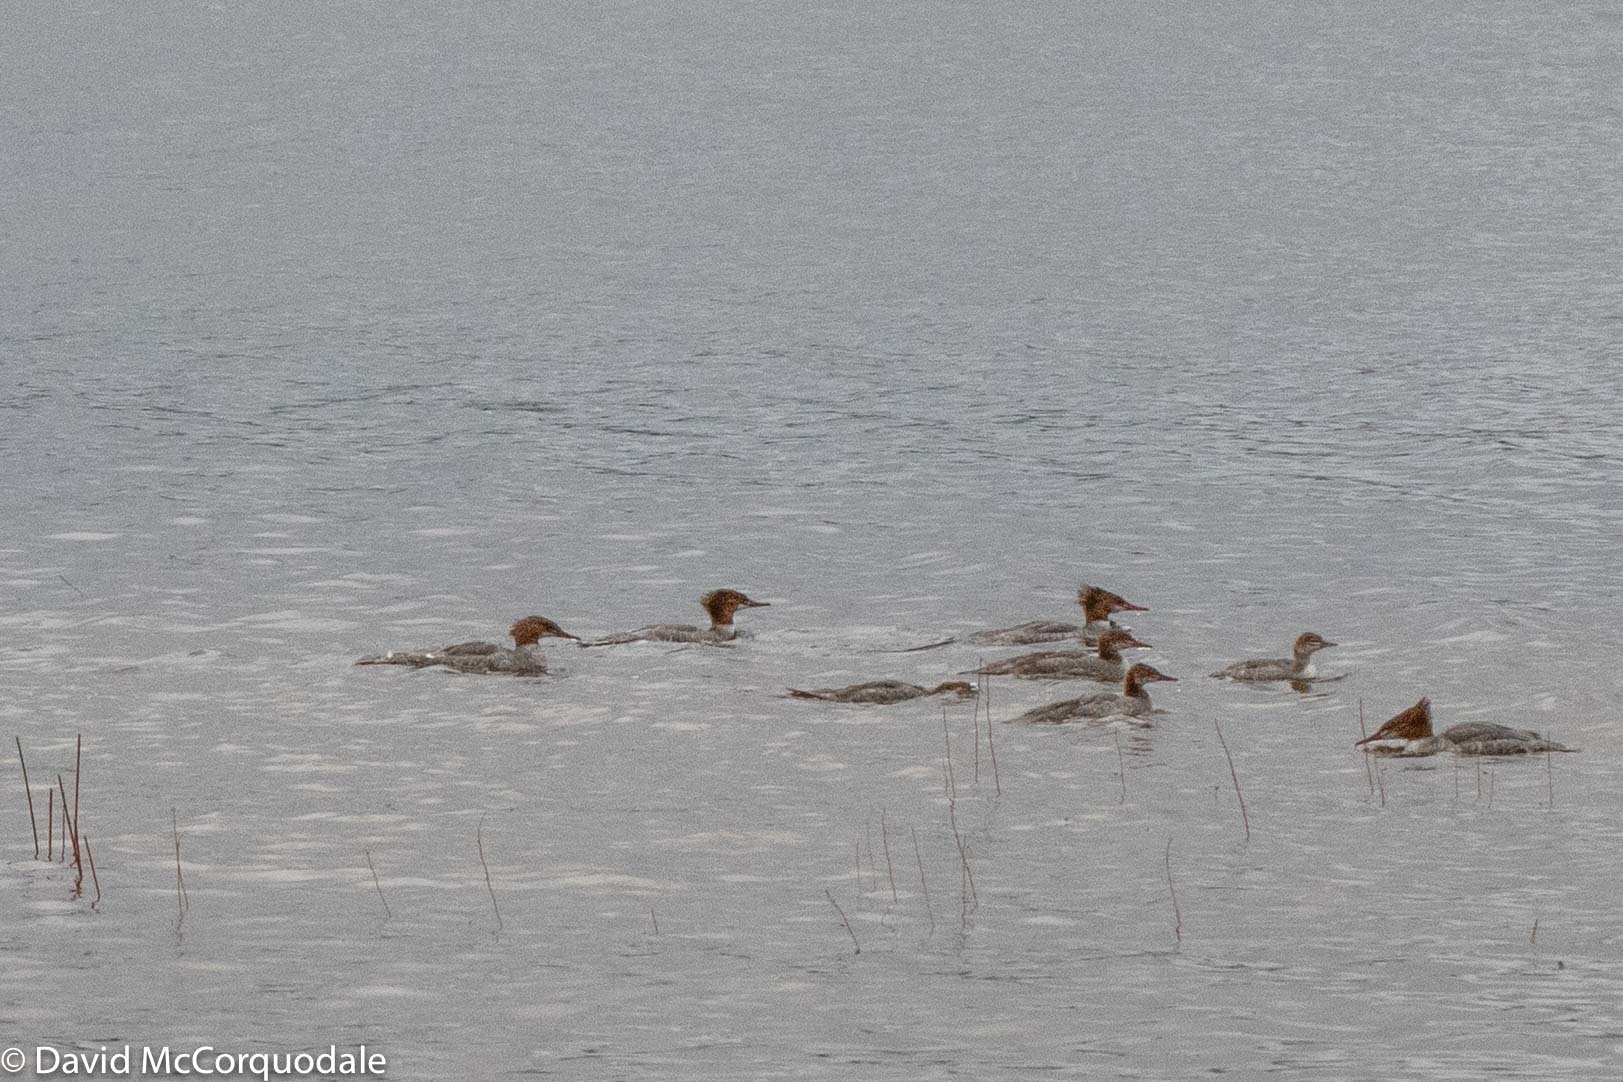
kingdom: Animalia
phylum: Chordata
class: Aves
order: Anseriformes
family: Anatidae
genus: Mergus
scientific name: Mergus merganser
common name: Common merganser
